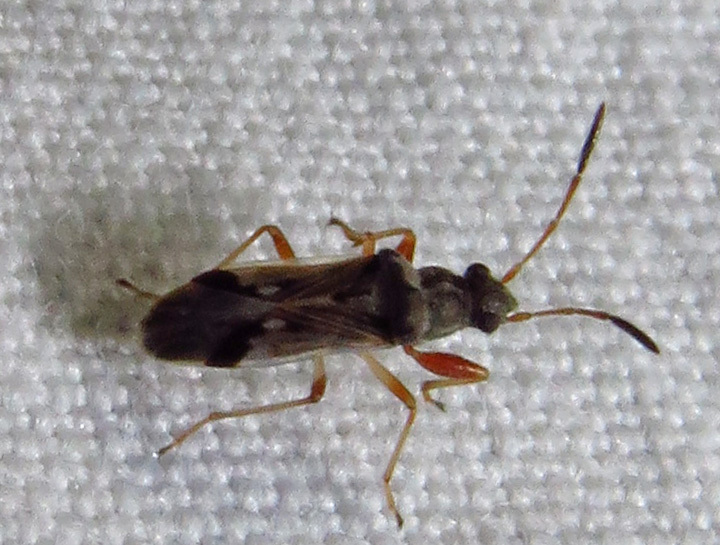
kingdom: Animalia
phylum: Arthropoda
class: Insecta
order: Hemiptera
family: Rhyparochromidae
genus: Pseudopachybrachius
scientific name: Pseudopachybrachius vinctus
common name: Dirt-colored seed bug
